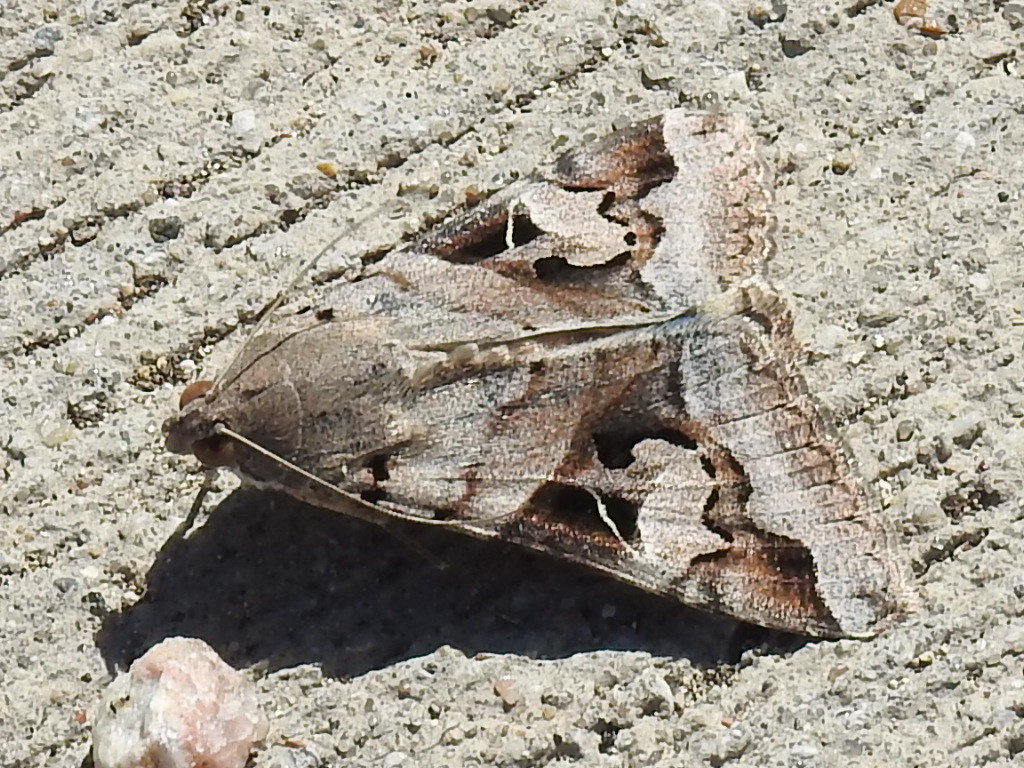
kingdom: Animalia
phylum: Arthropoda
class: Insecta
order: Lepidoptera
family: Erebidae
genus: Melipotis
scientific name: Melipotis indomita
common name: Moth
